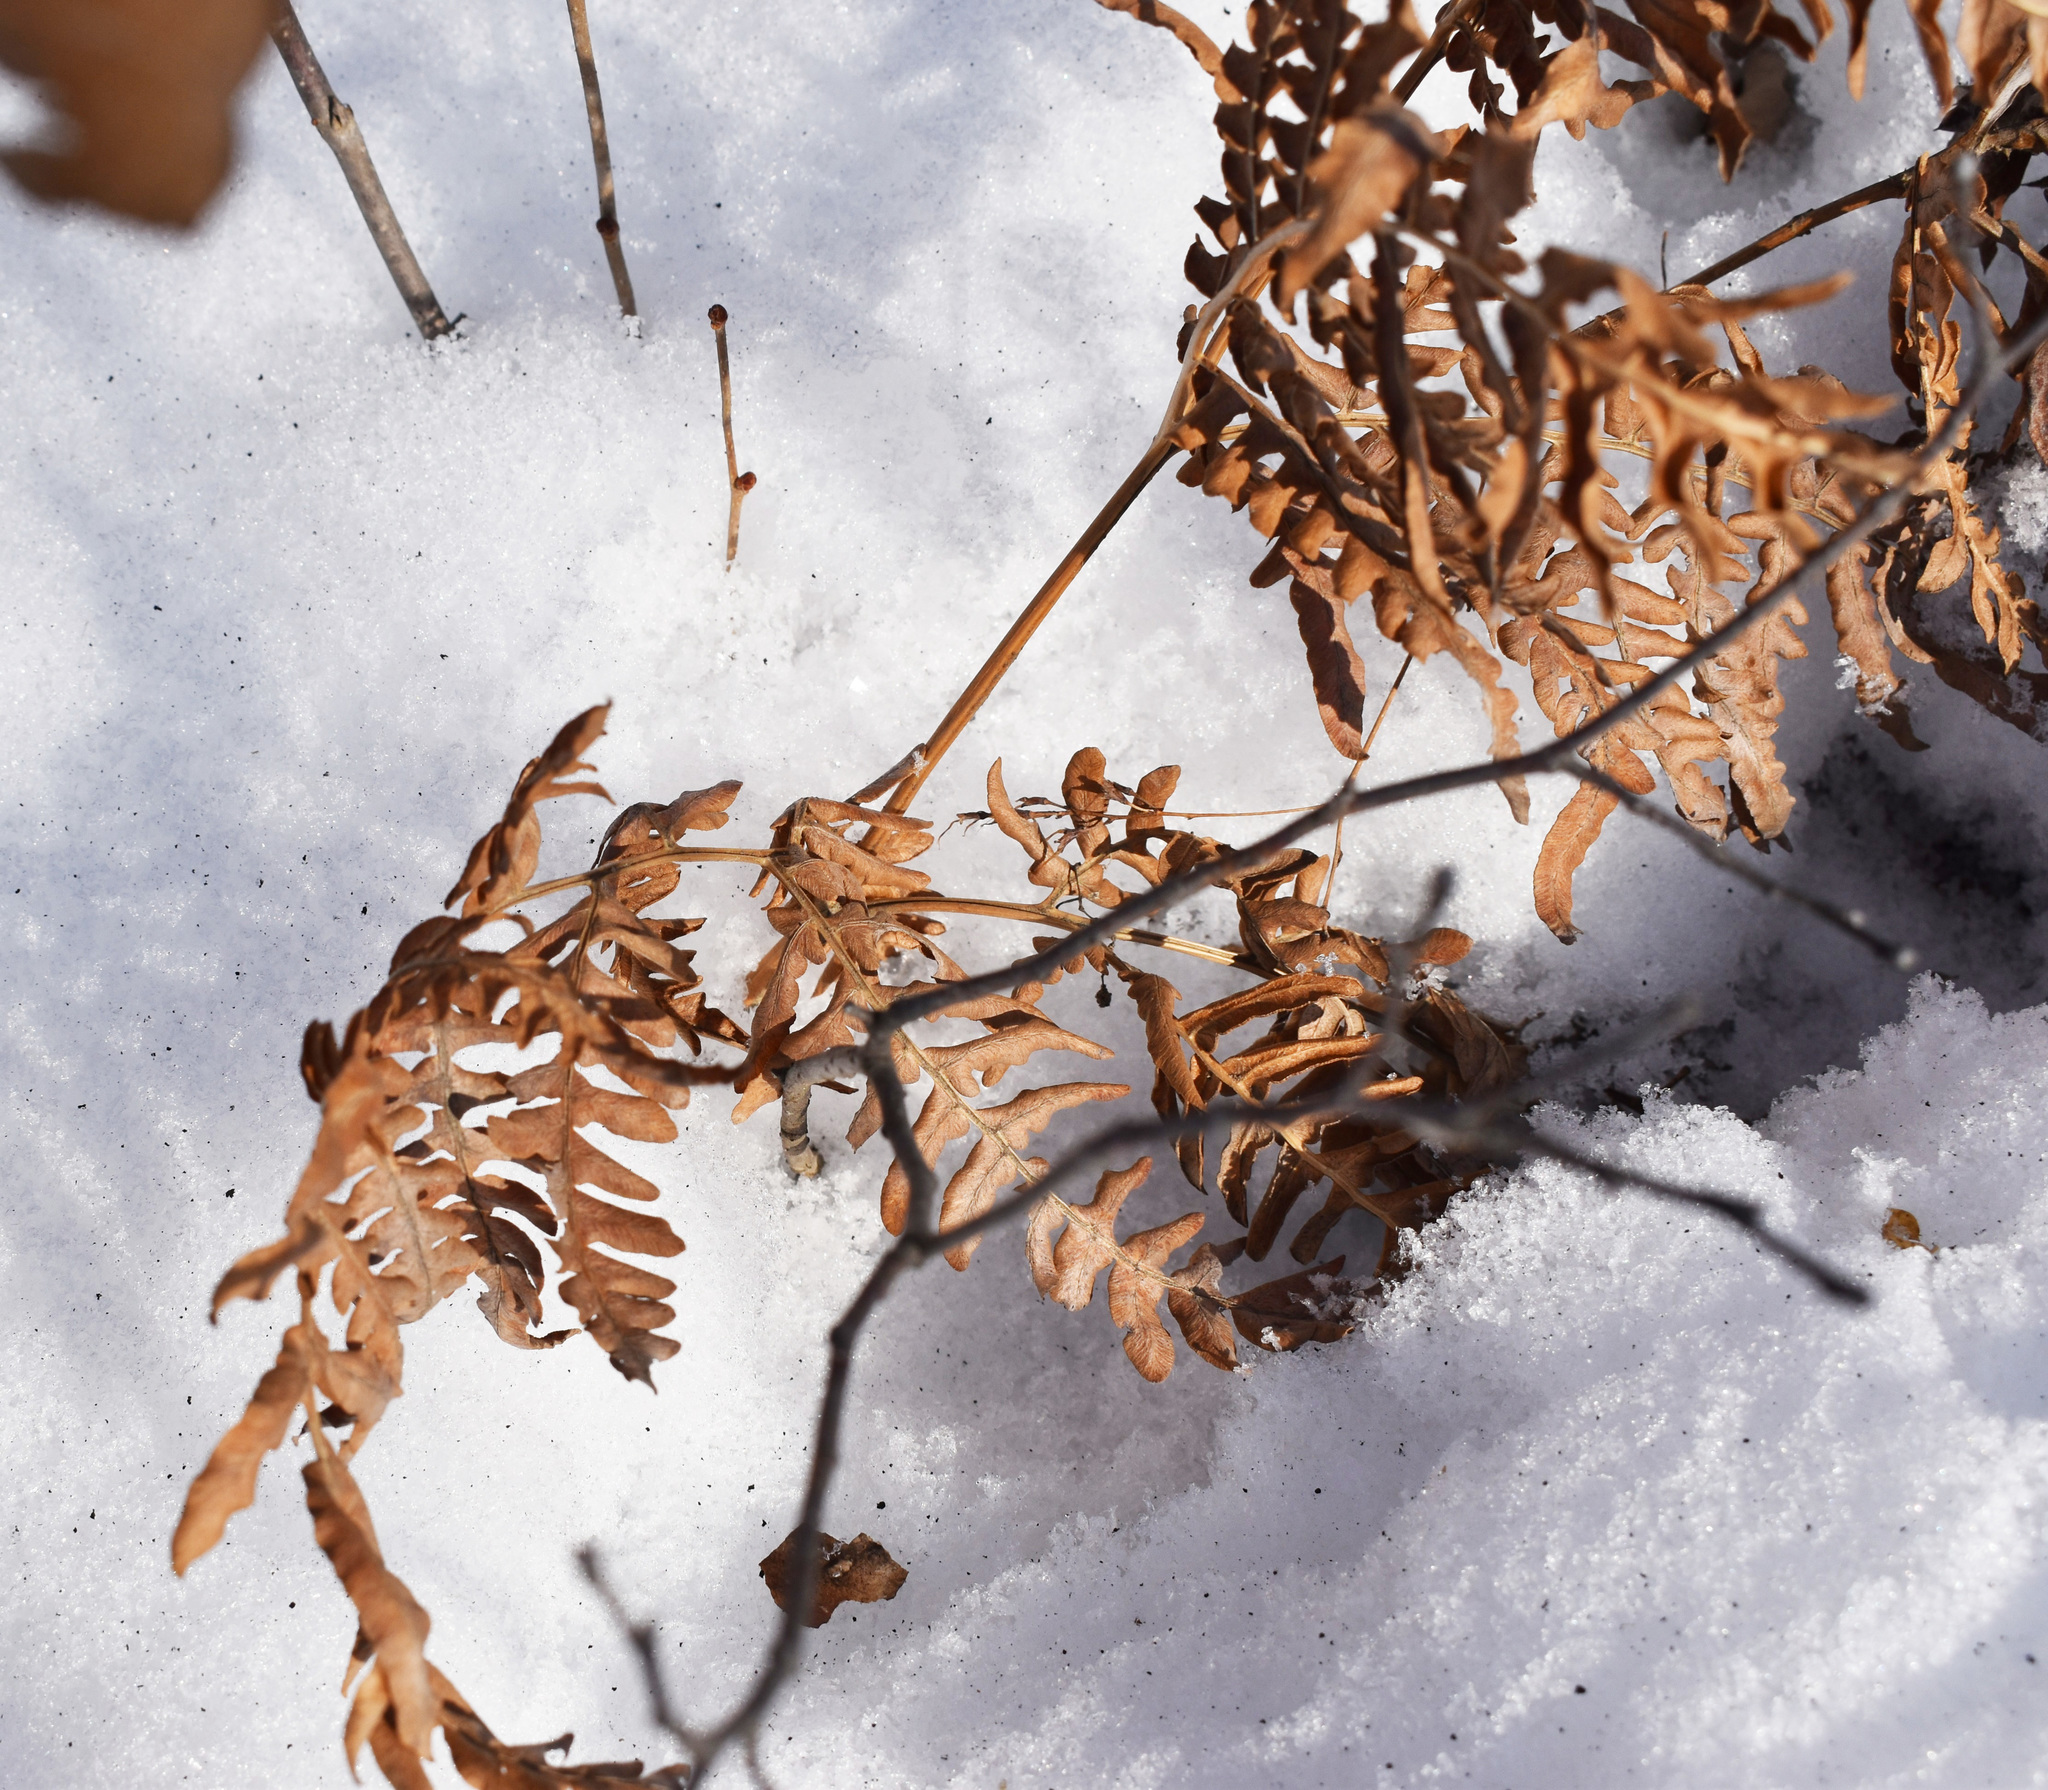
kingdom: Plantae
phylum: Tracheophyta
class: Polypodiopsida
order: Polypodiales
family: Dennstaedtiaceae
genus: Pteridium
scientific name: Pteridium aquilinum
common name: Bracken
